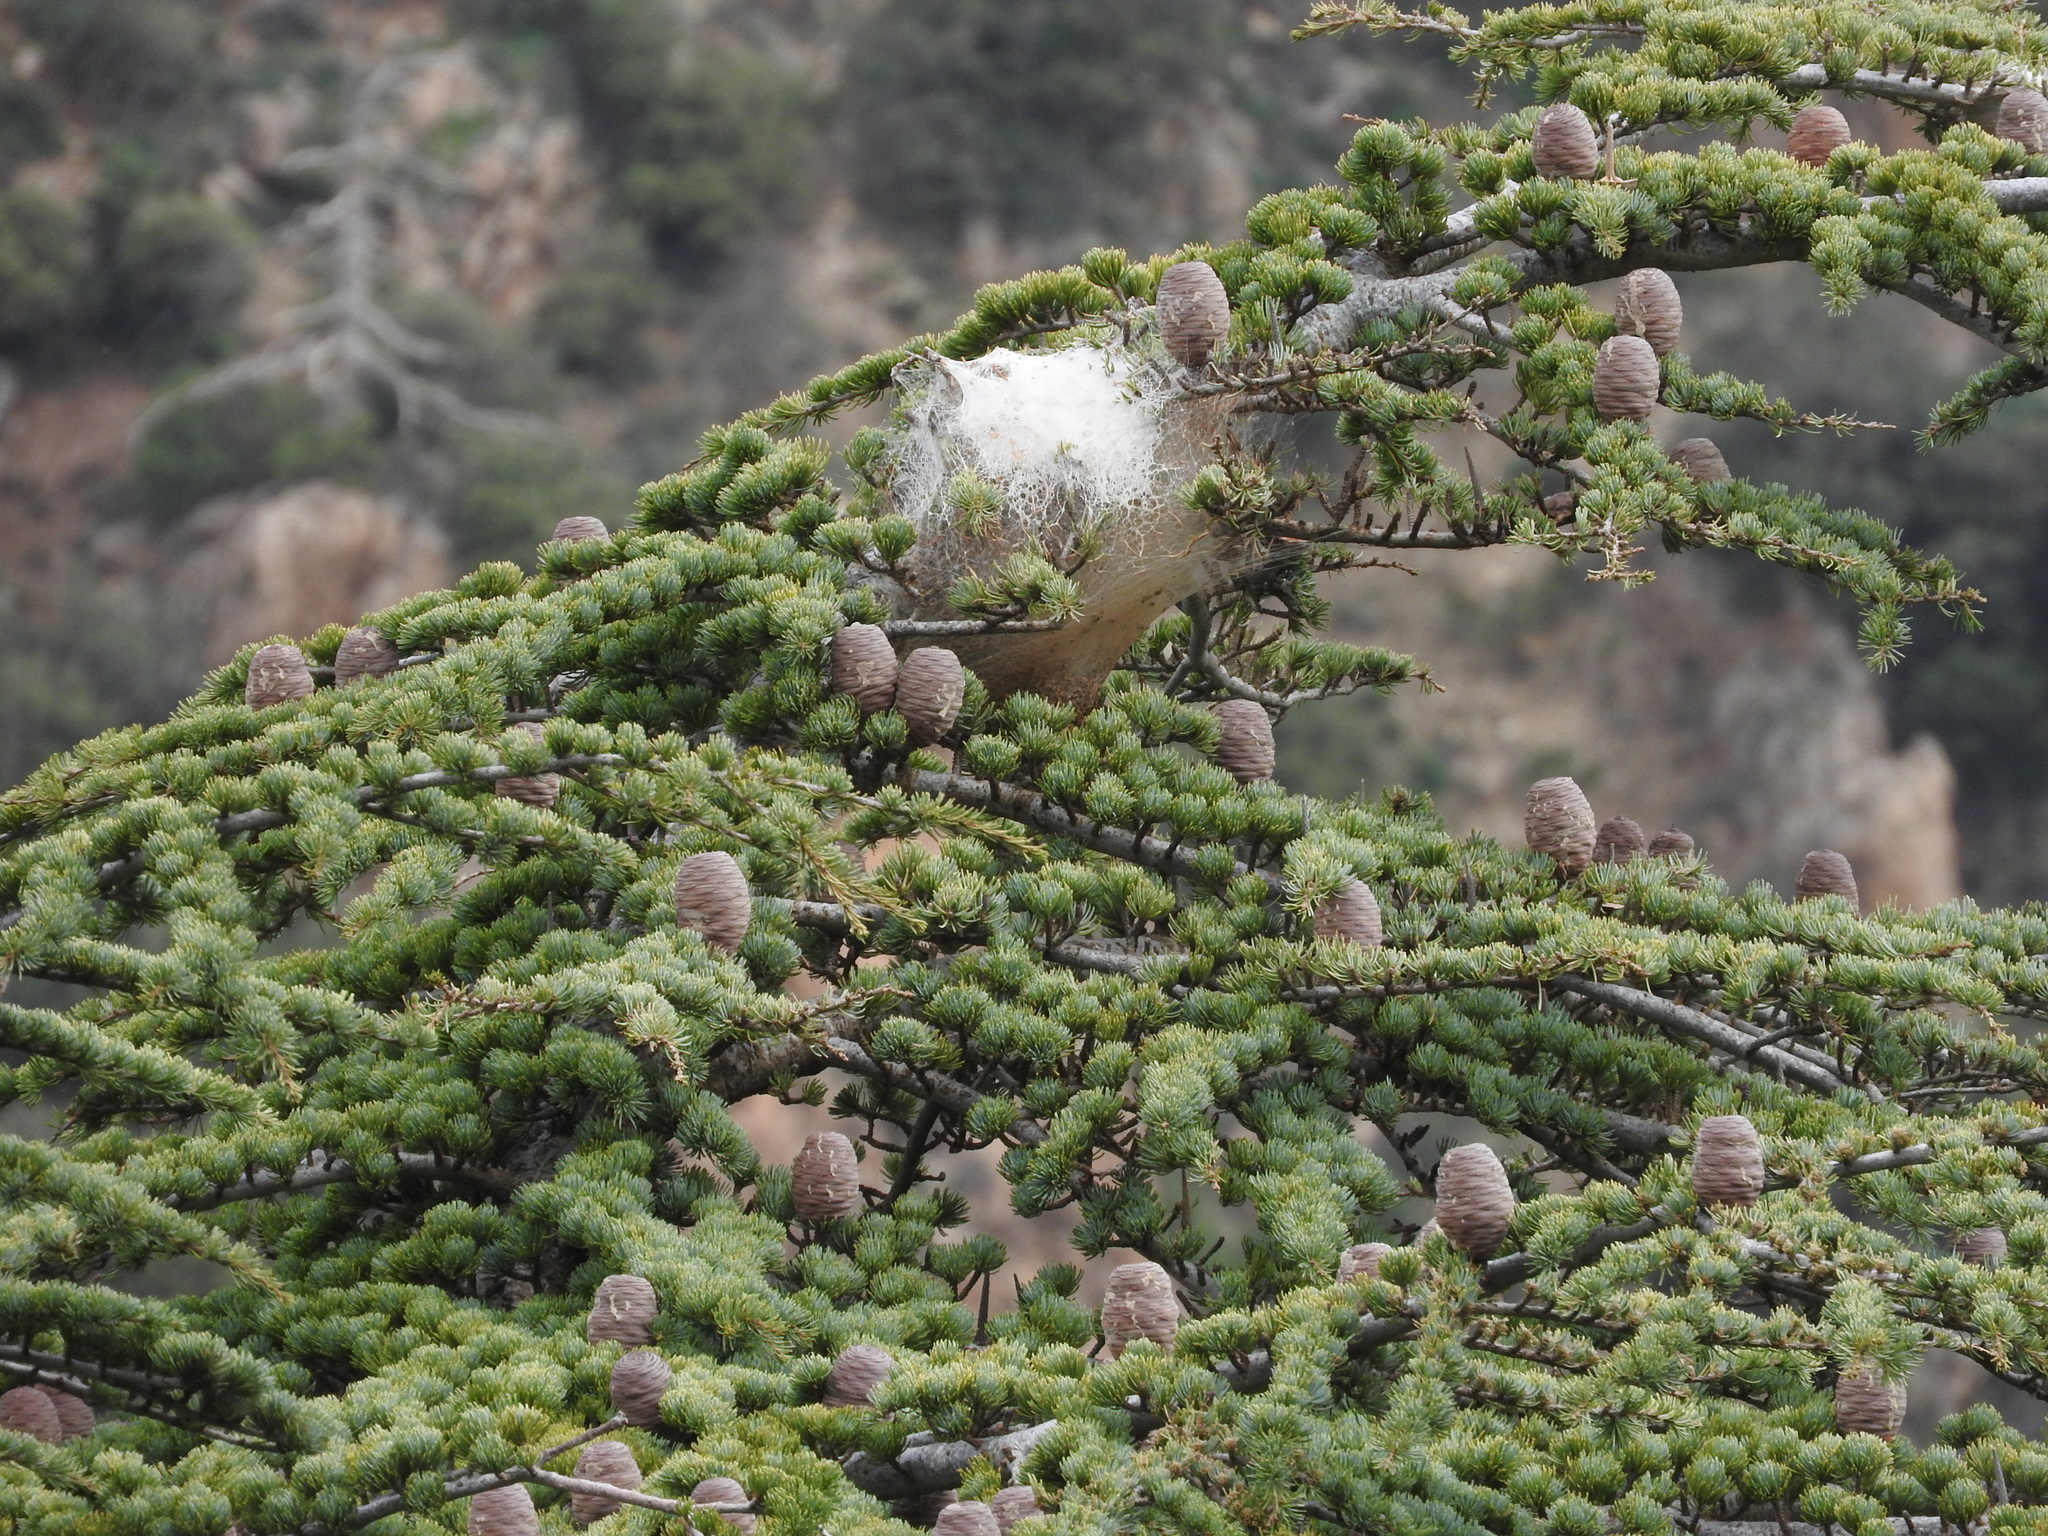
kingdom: Plantae
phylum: Tracheophyta
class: Pinopsida
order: Pinales
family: Pinaceae
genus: Cedrus
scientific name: Cedrus atlantica
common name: Atlas cedar
